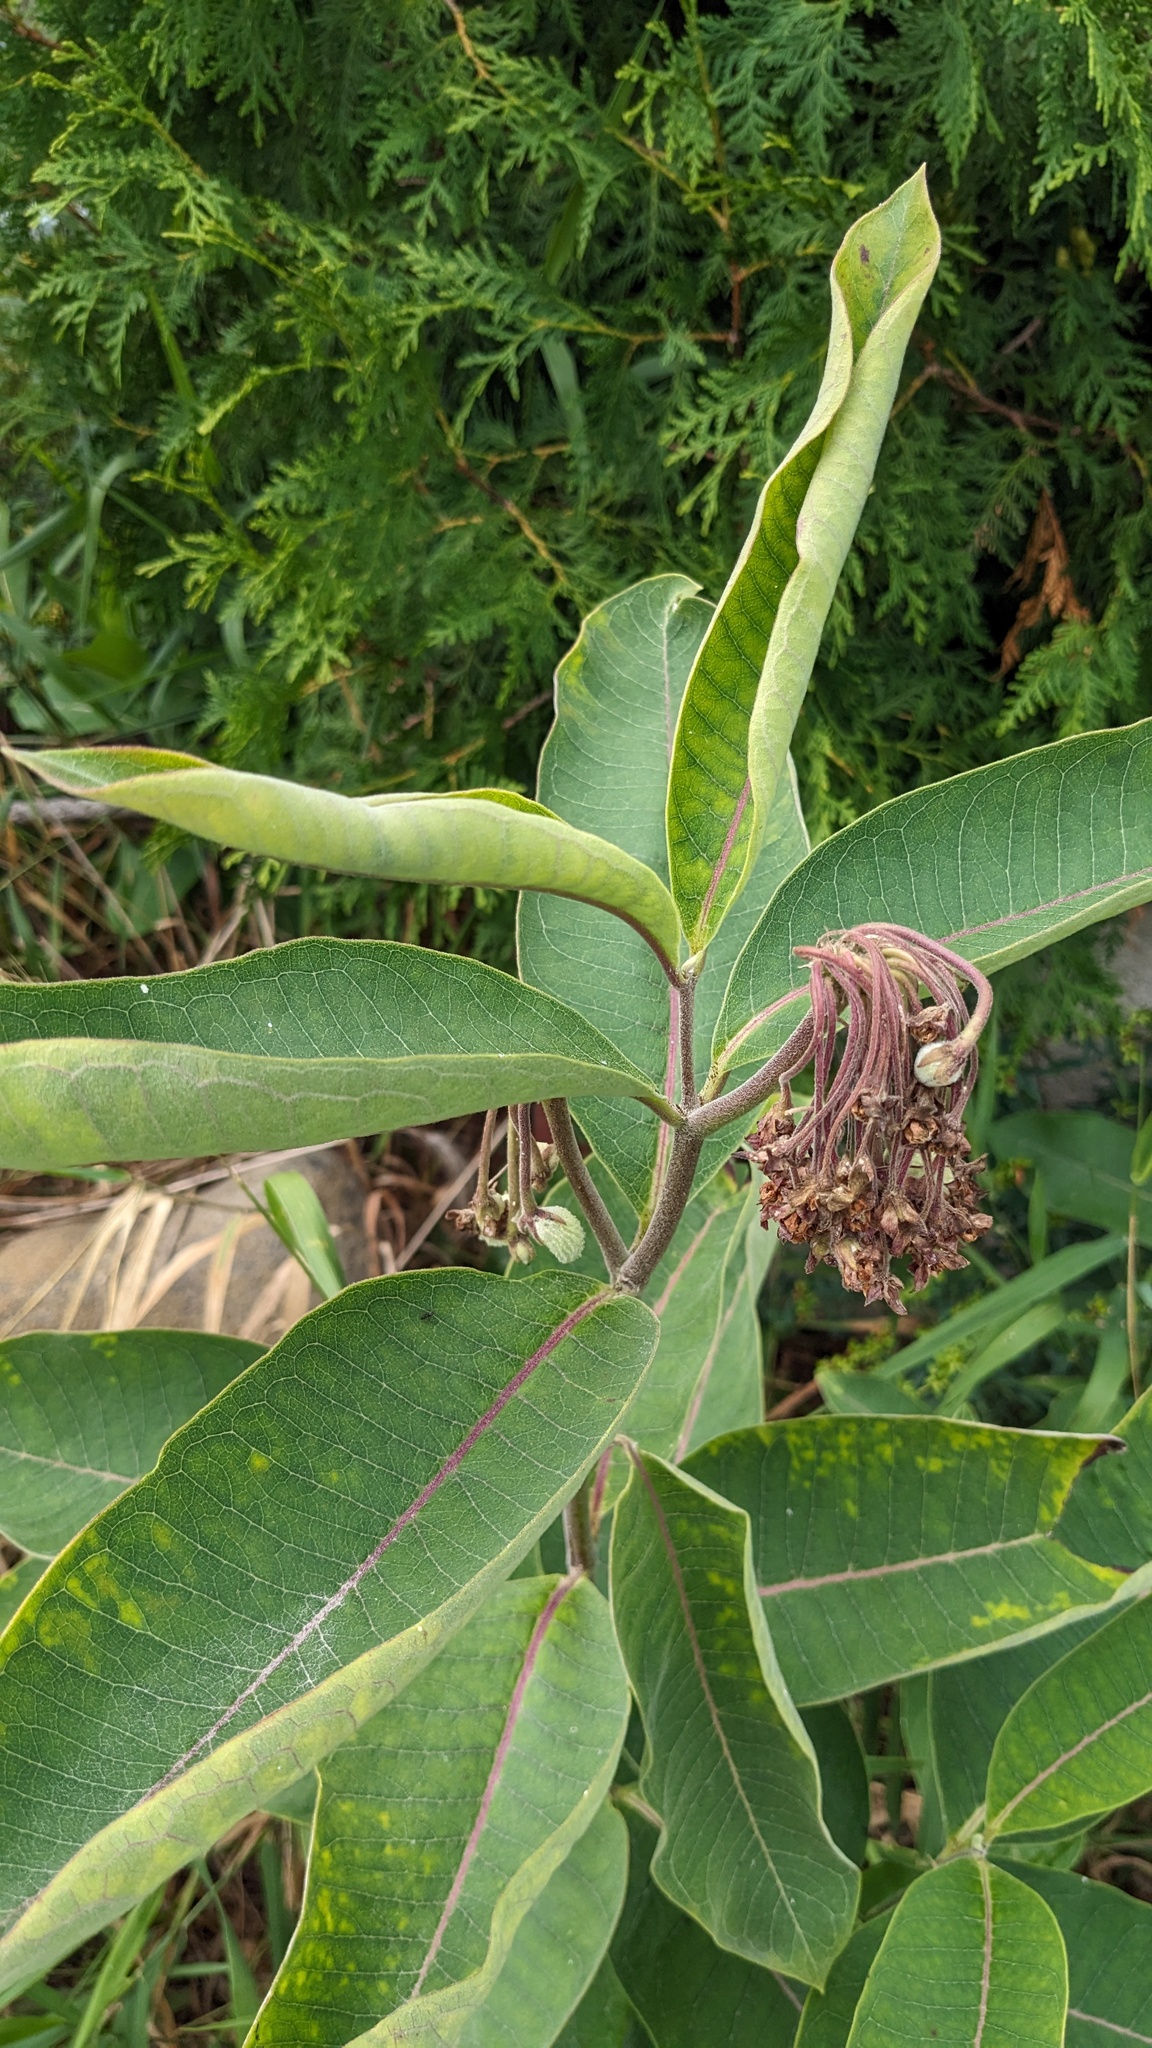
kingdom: Plantae
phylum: Tracheophyta
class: Magnoliopsida
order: Gentianales
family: Apocynaceae
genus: Asclepias
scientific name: Asclepias syriaca
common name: Common milkweed
